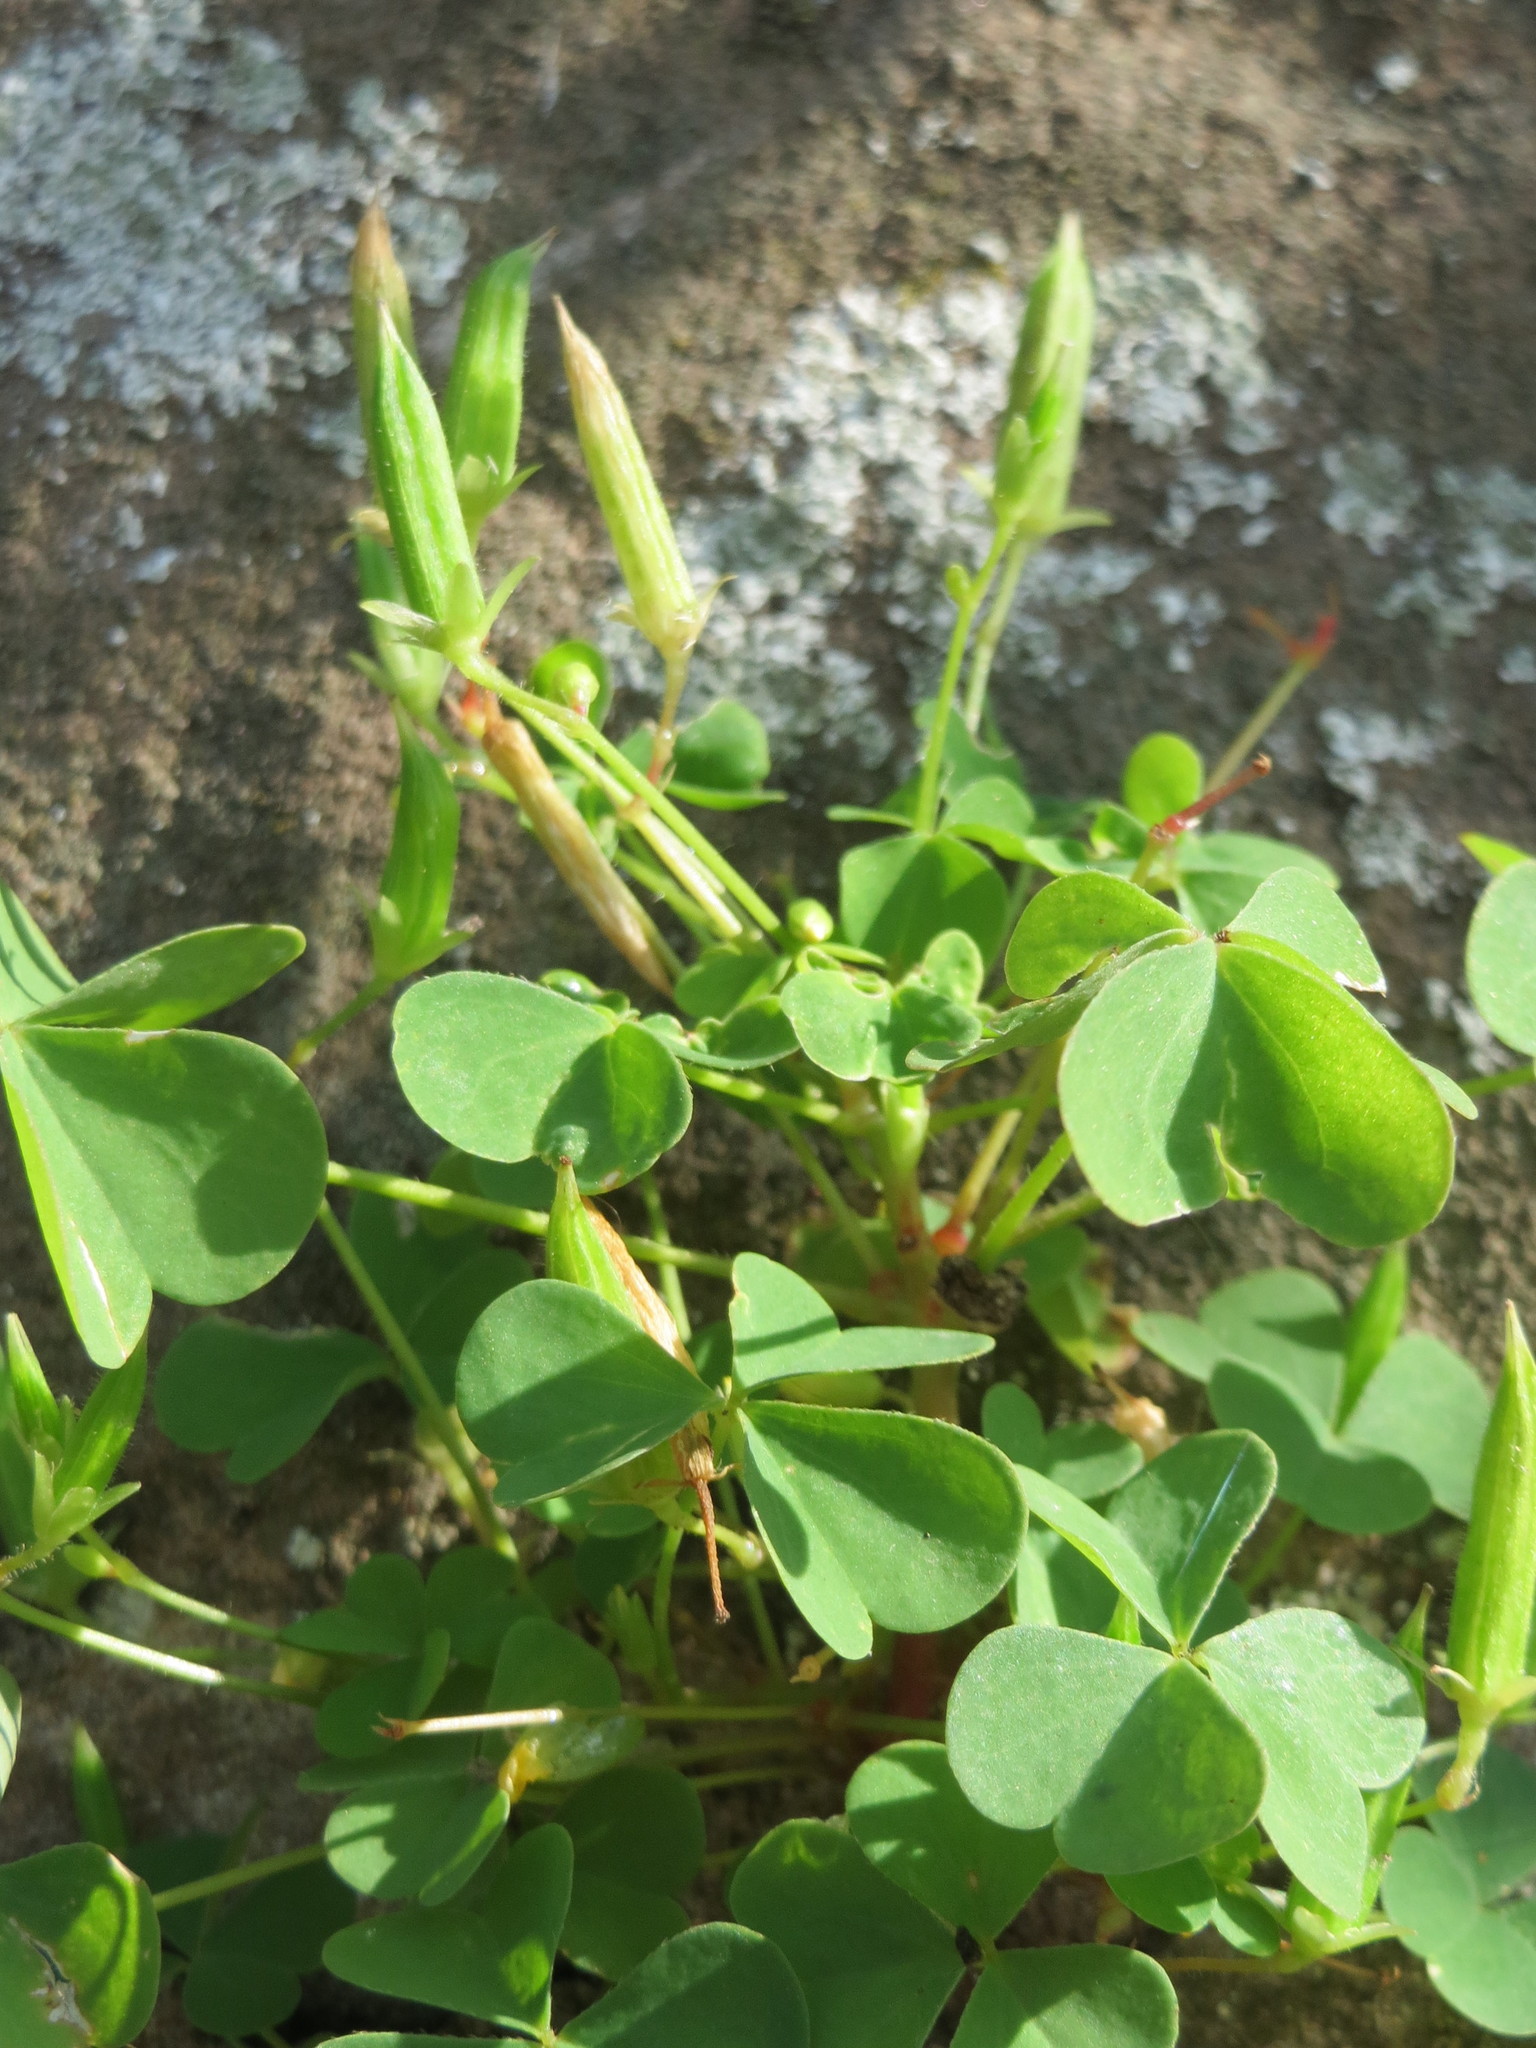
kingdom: Plantae
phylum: Tracheophyta
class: Magnoliopsida
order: Oxalidales
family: Oxalidaceae
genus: Oxalis
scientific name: Oxalis stricta
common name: Upright yellow-sorrel
